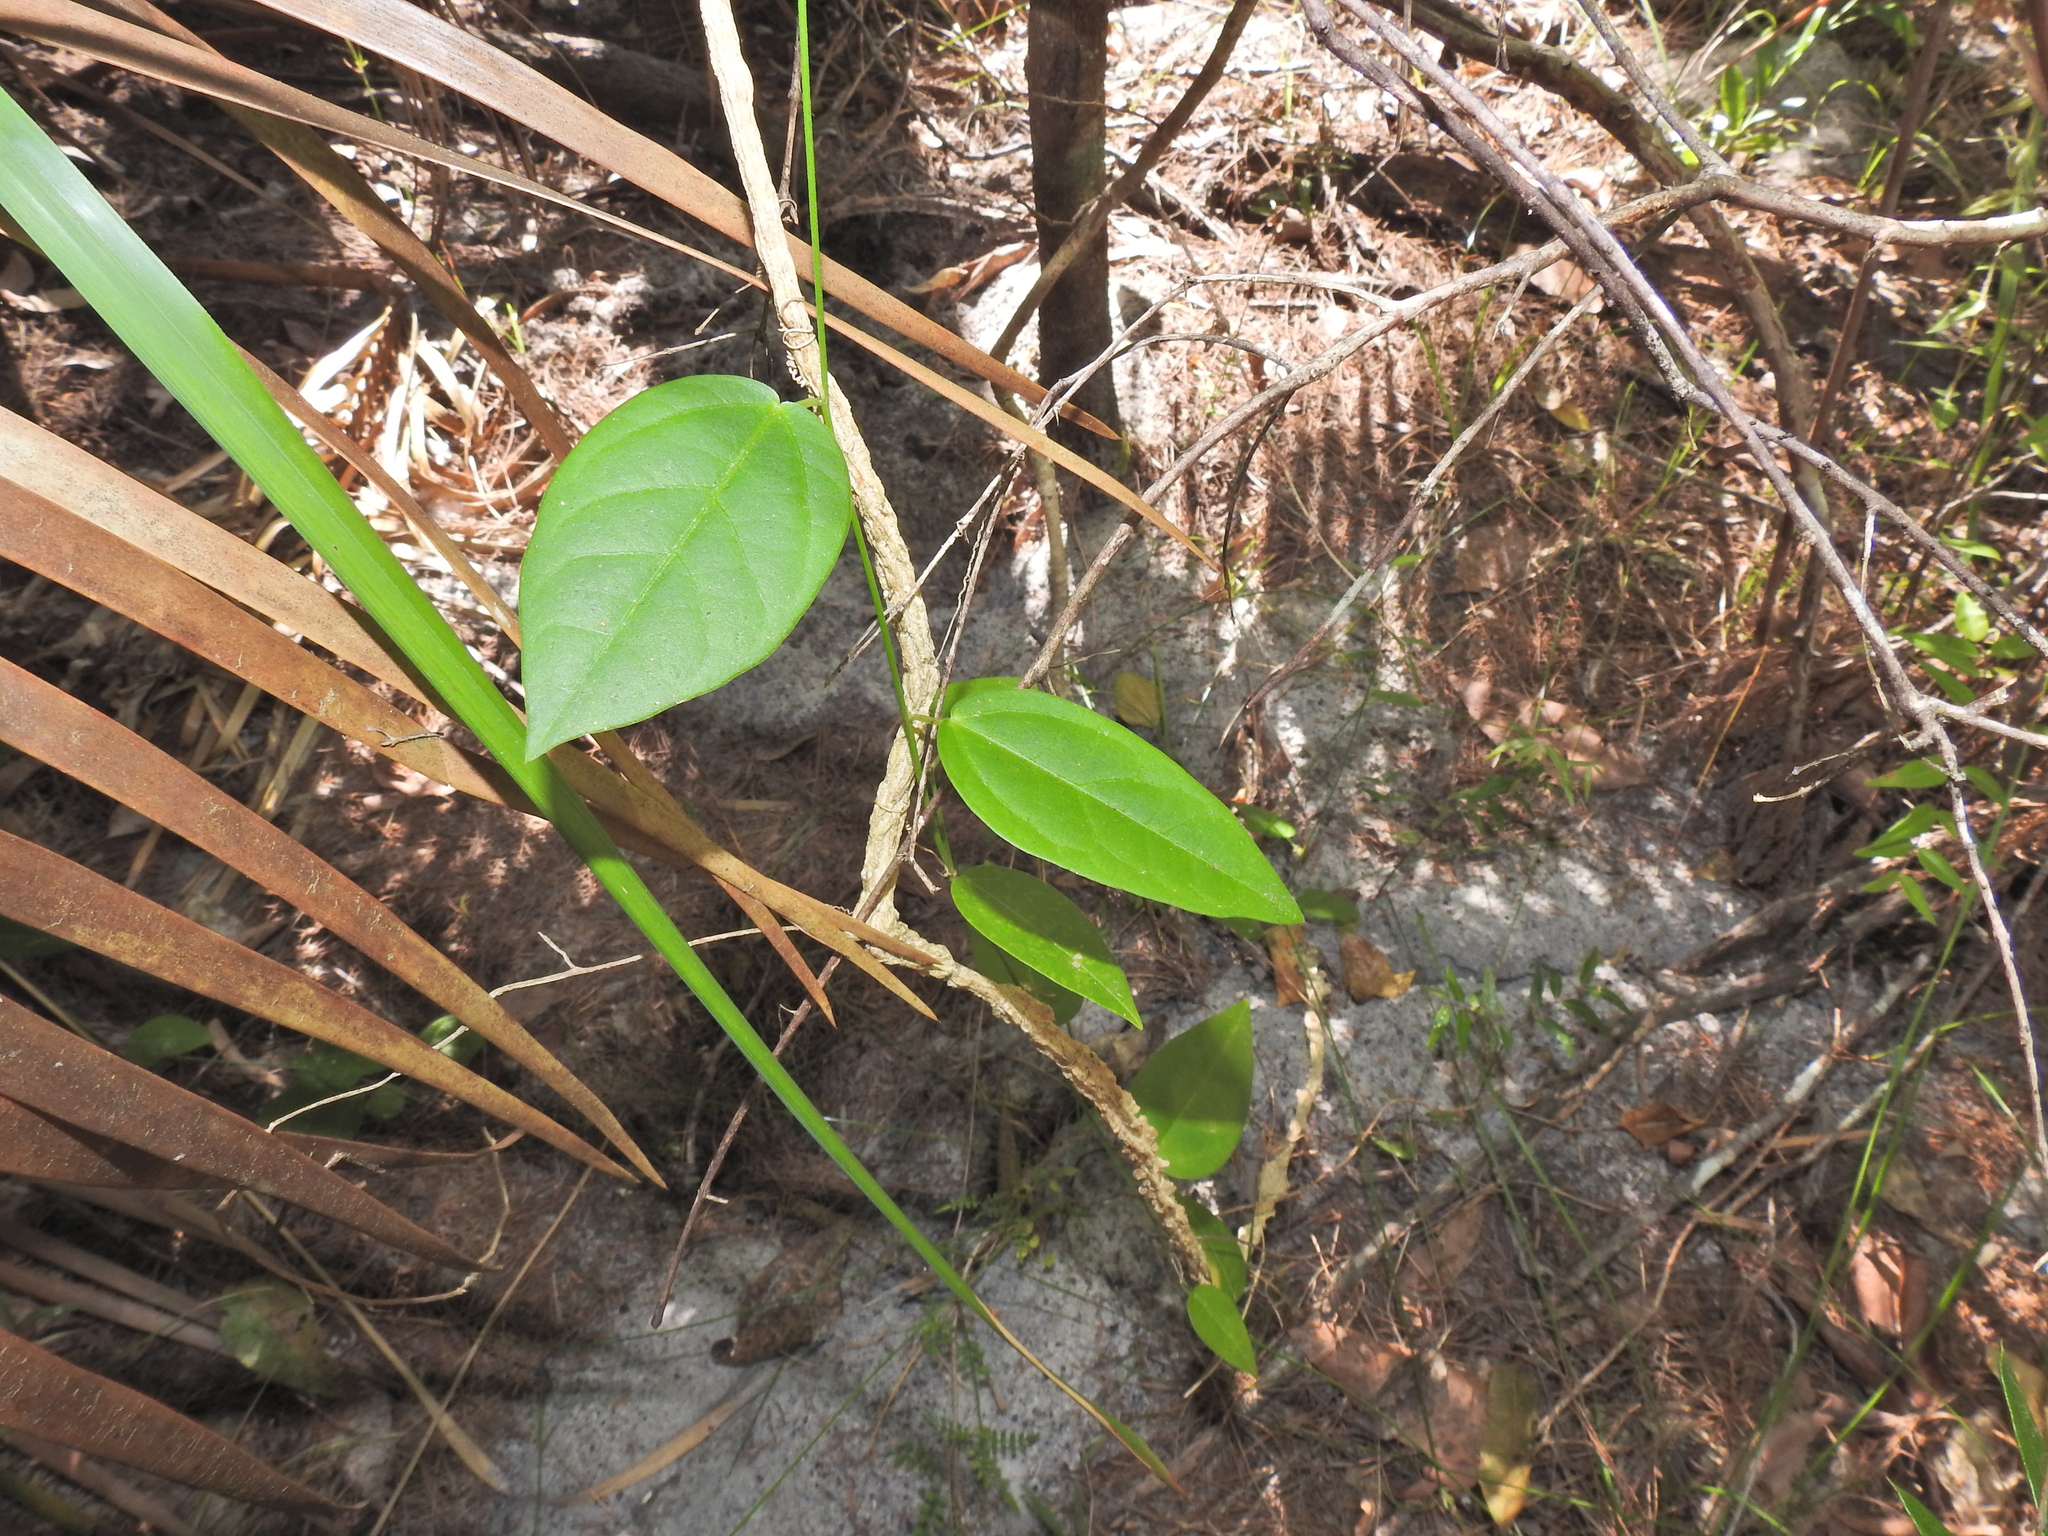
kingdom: Plantae
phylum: Tracheophyta
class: Magnoliopsida
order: Malpighiales
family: Passifloraceae
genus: Passiflora
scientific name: Passiflora pallida
